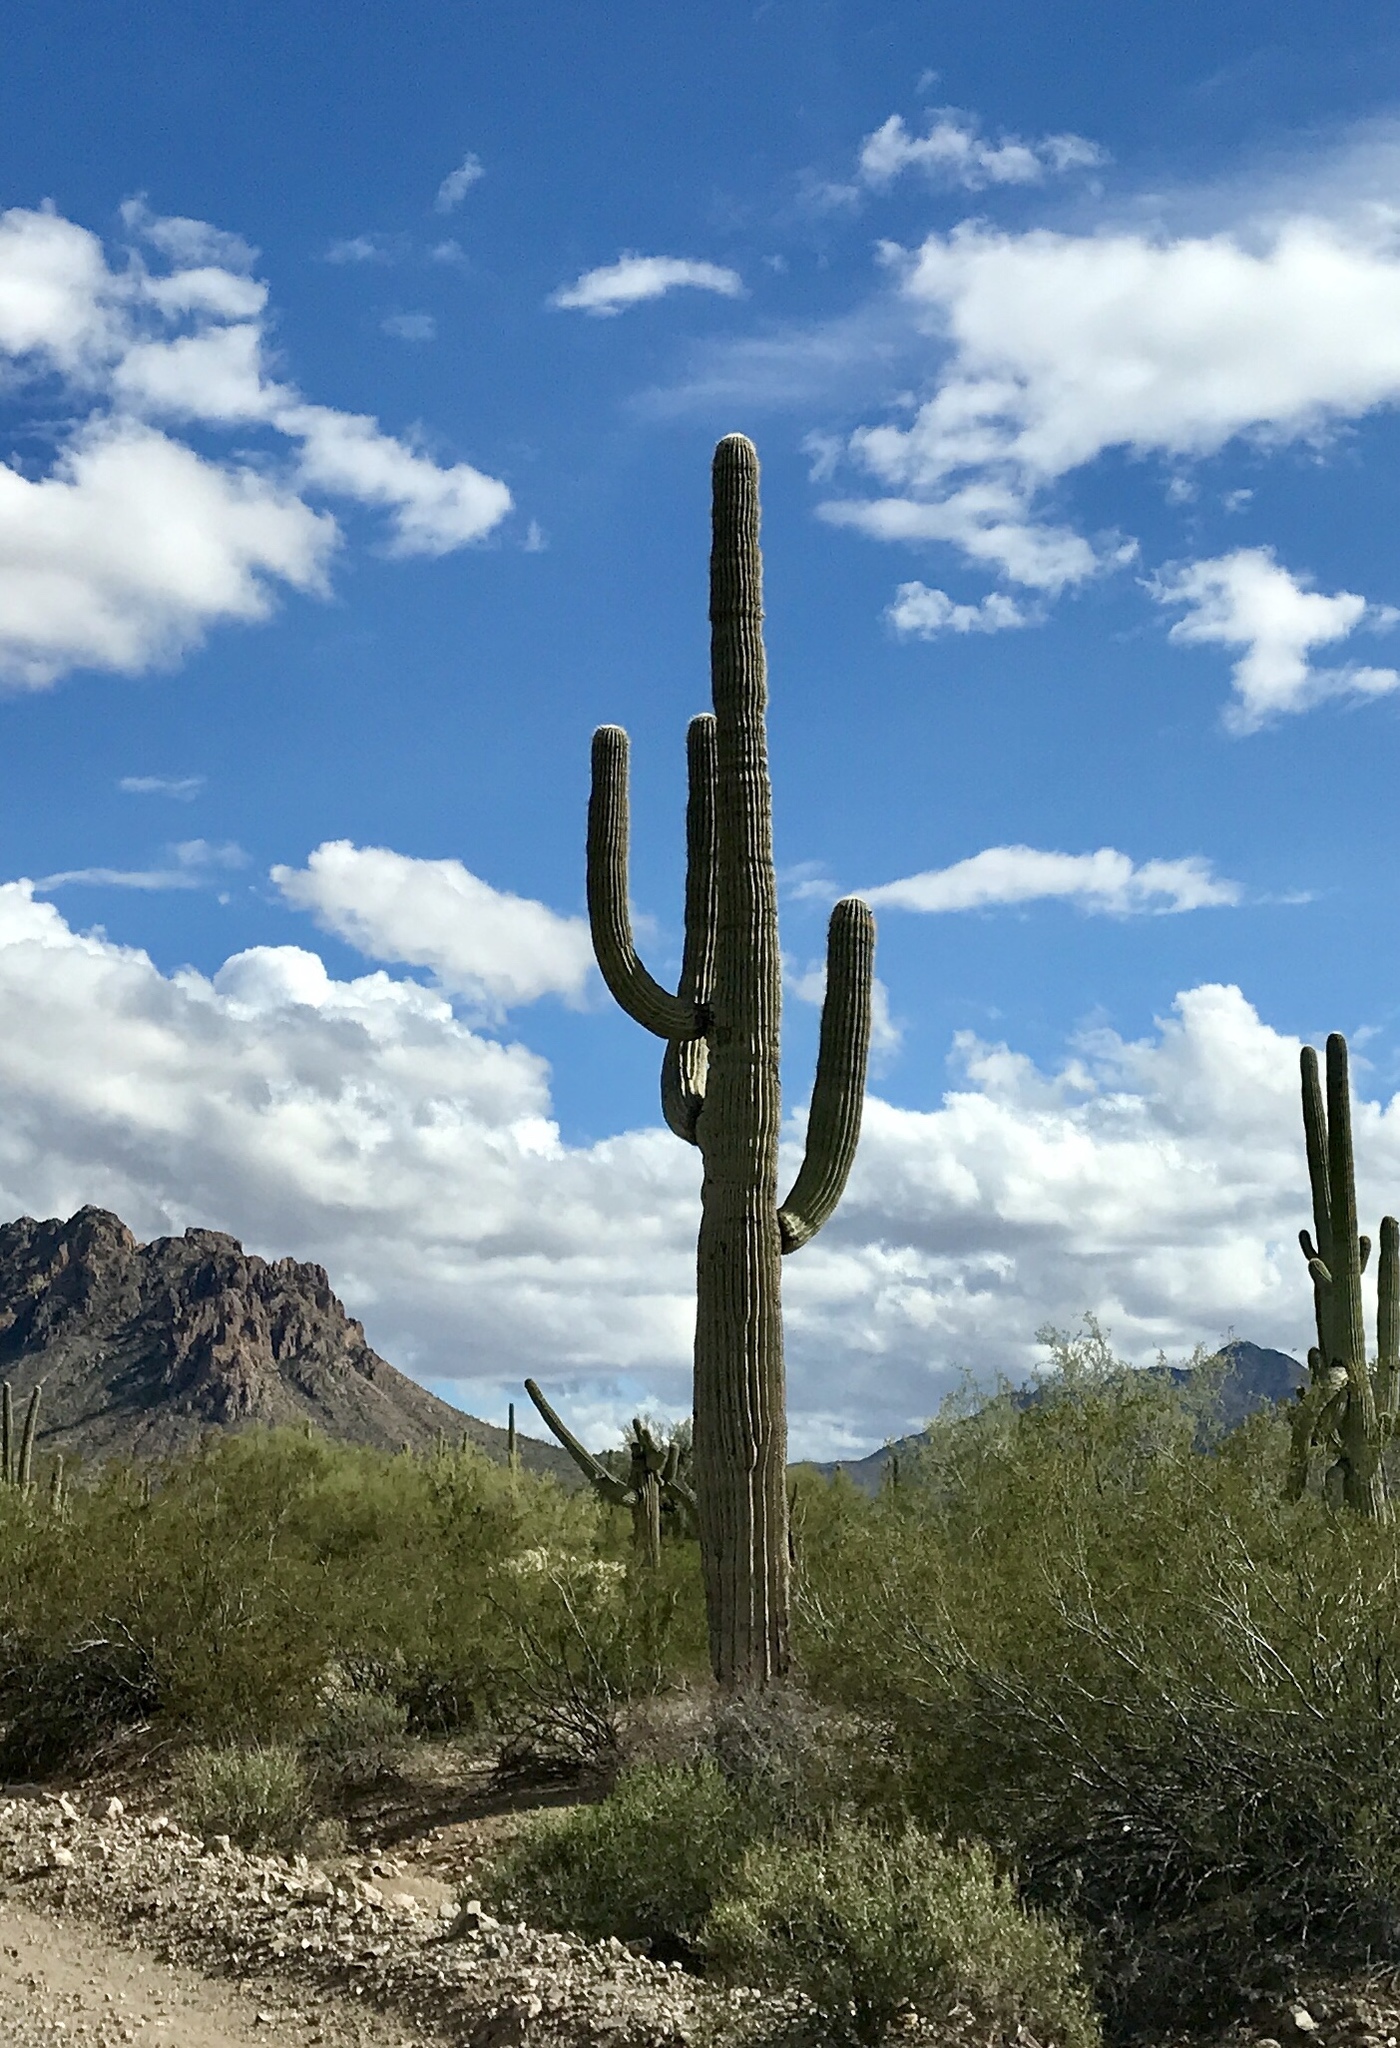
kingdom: Plantae
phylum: Tracheophyta
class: Magnoliopsida
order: Caryophyllales
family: Cactaceae
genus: Carnegiea
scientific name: Carnegiea gigantea
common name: Saguaro
